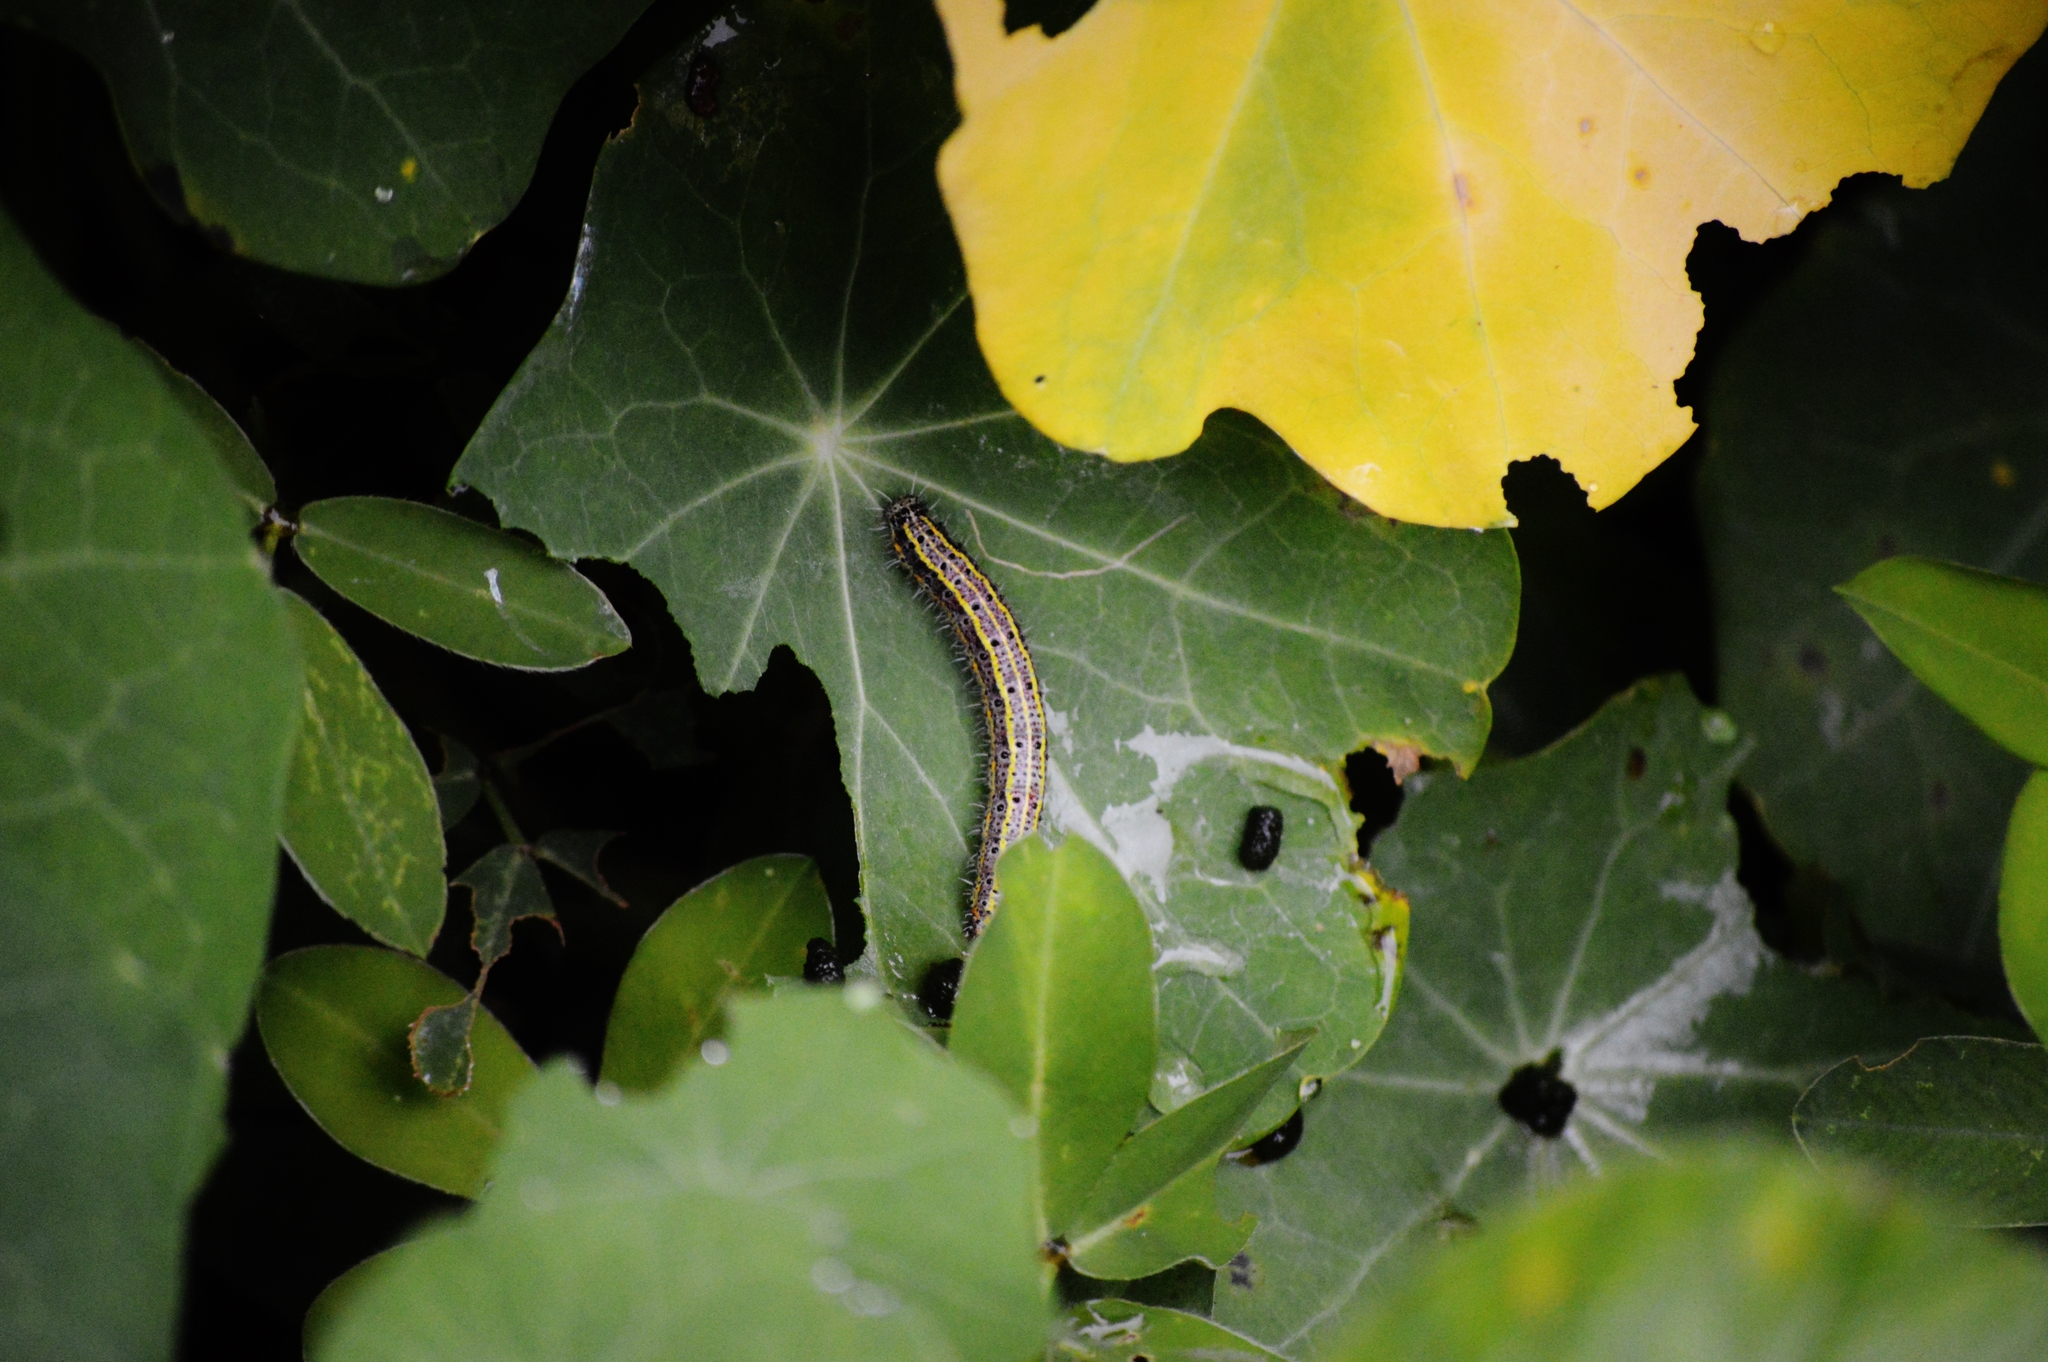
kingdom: Animalia
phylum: Arthropoda
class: Insecta
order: Lepidoptera
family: Pieridae
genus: Ascia
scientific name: Ascia monuste
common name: Great southern white
